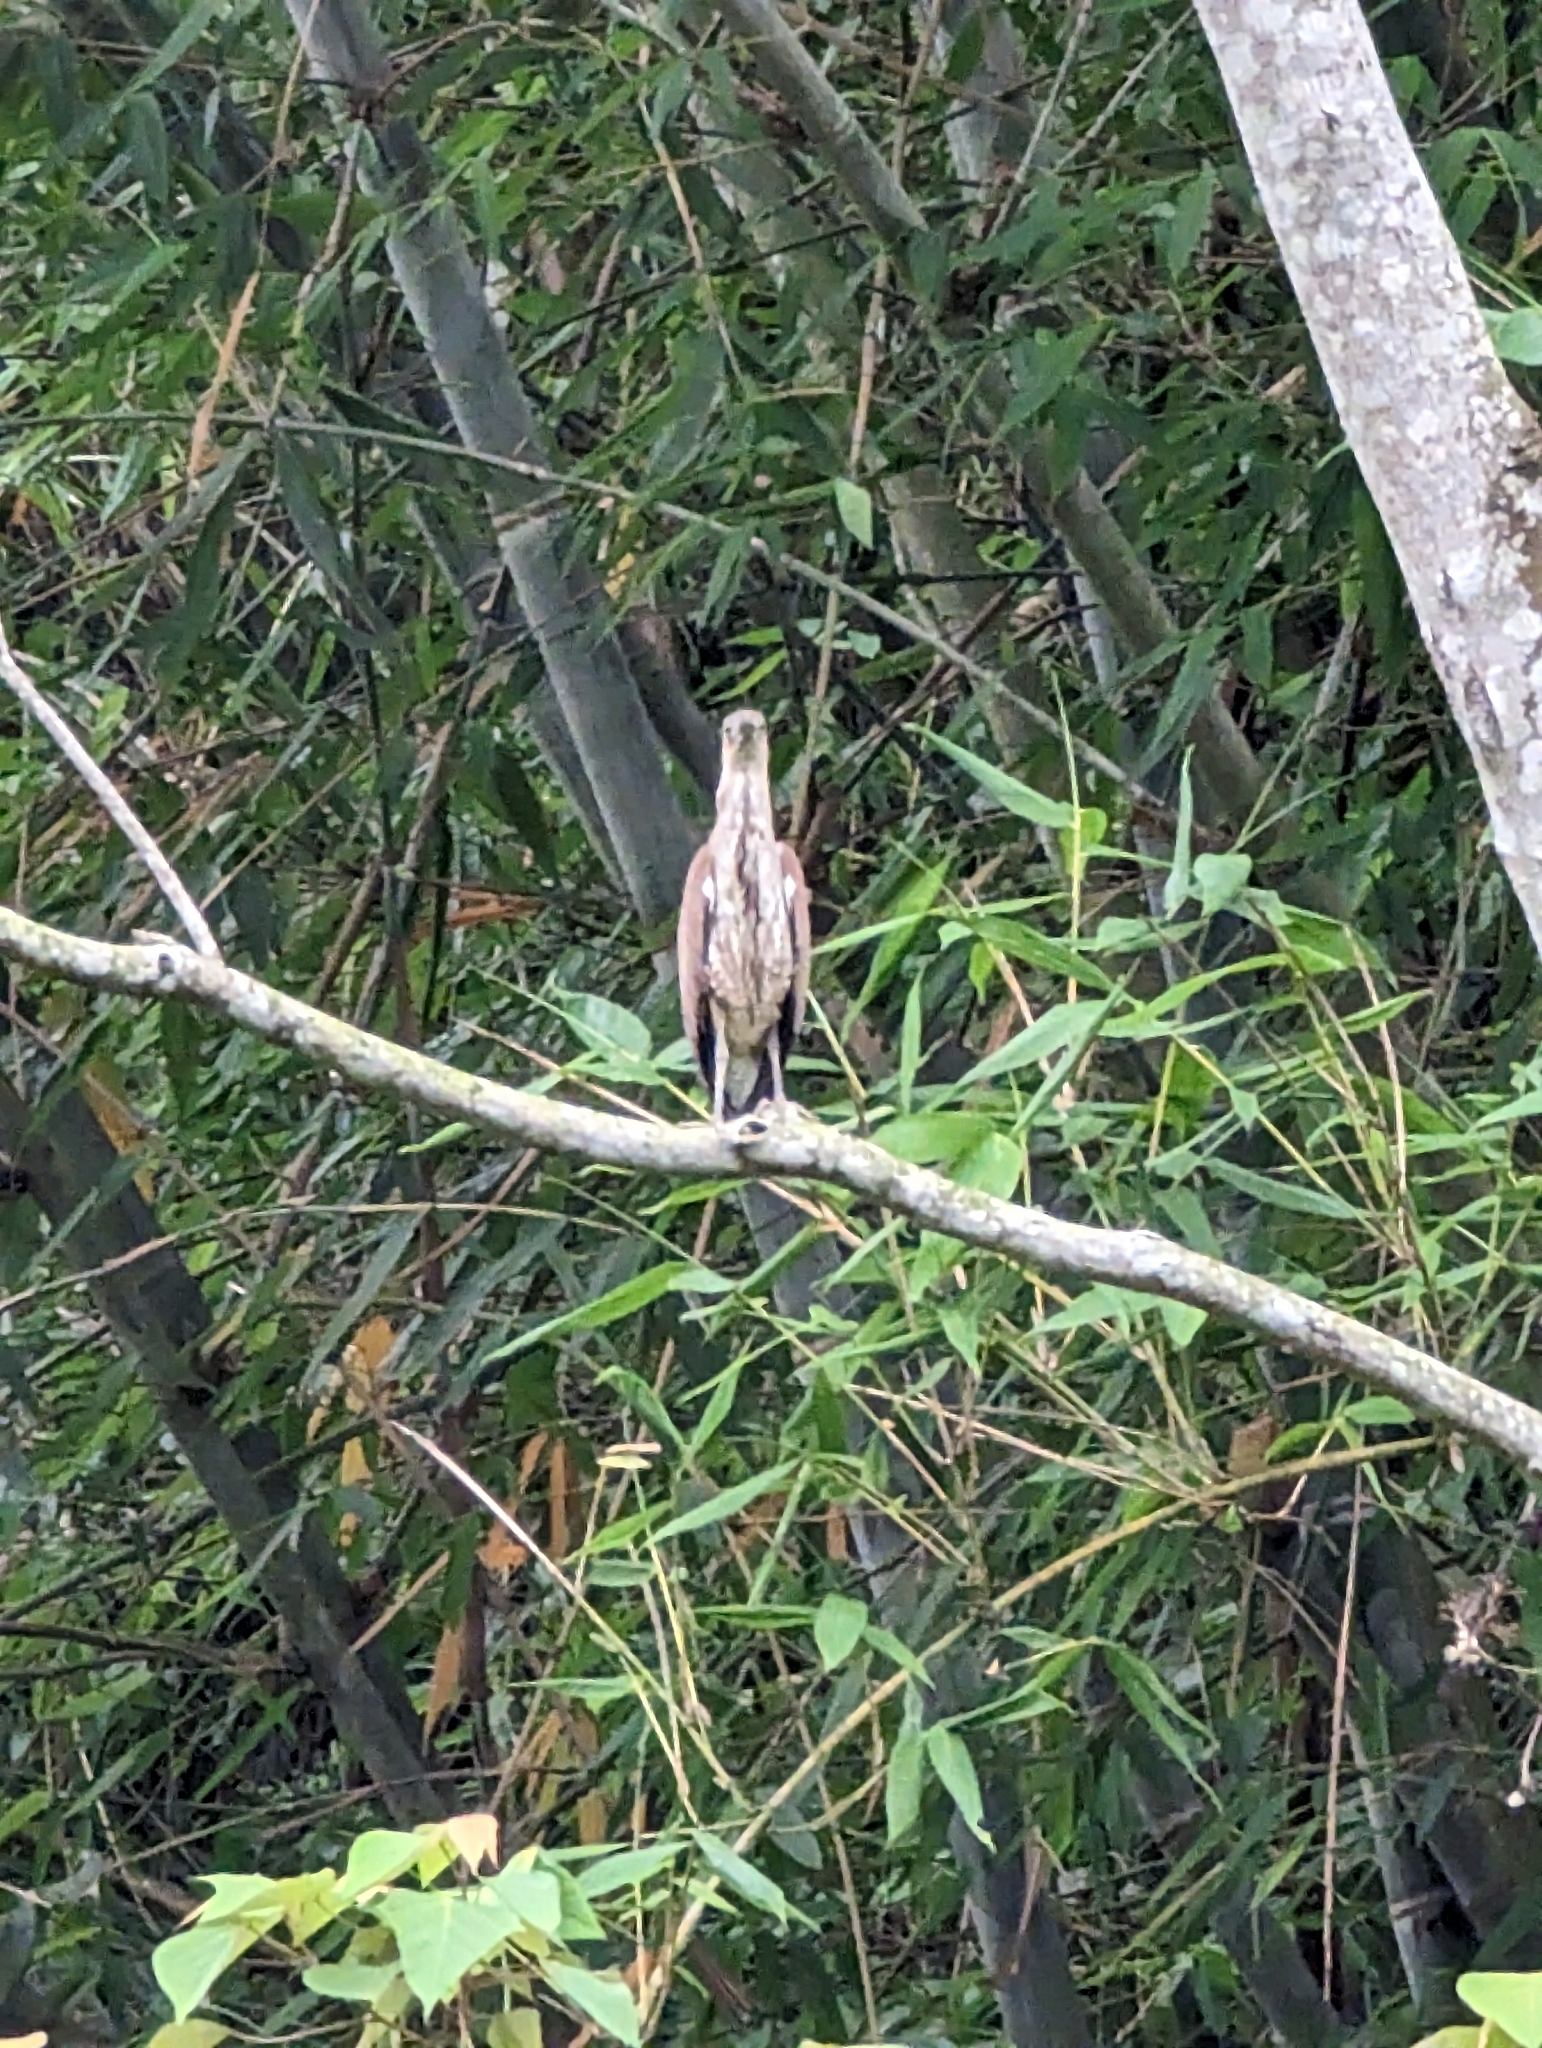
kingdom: Animalia
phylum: Chordata
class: Aves
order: Pelecaniformes
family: Ardeidae
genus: Gorsachius
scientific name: Gorsachius melanolophus
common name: Malayan night heron
